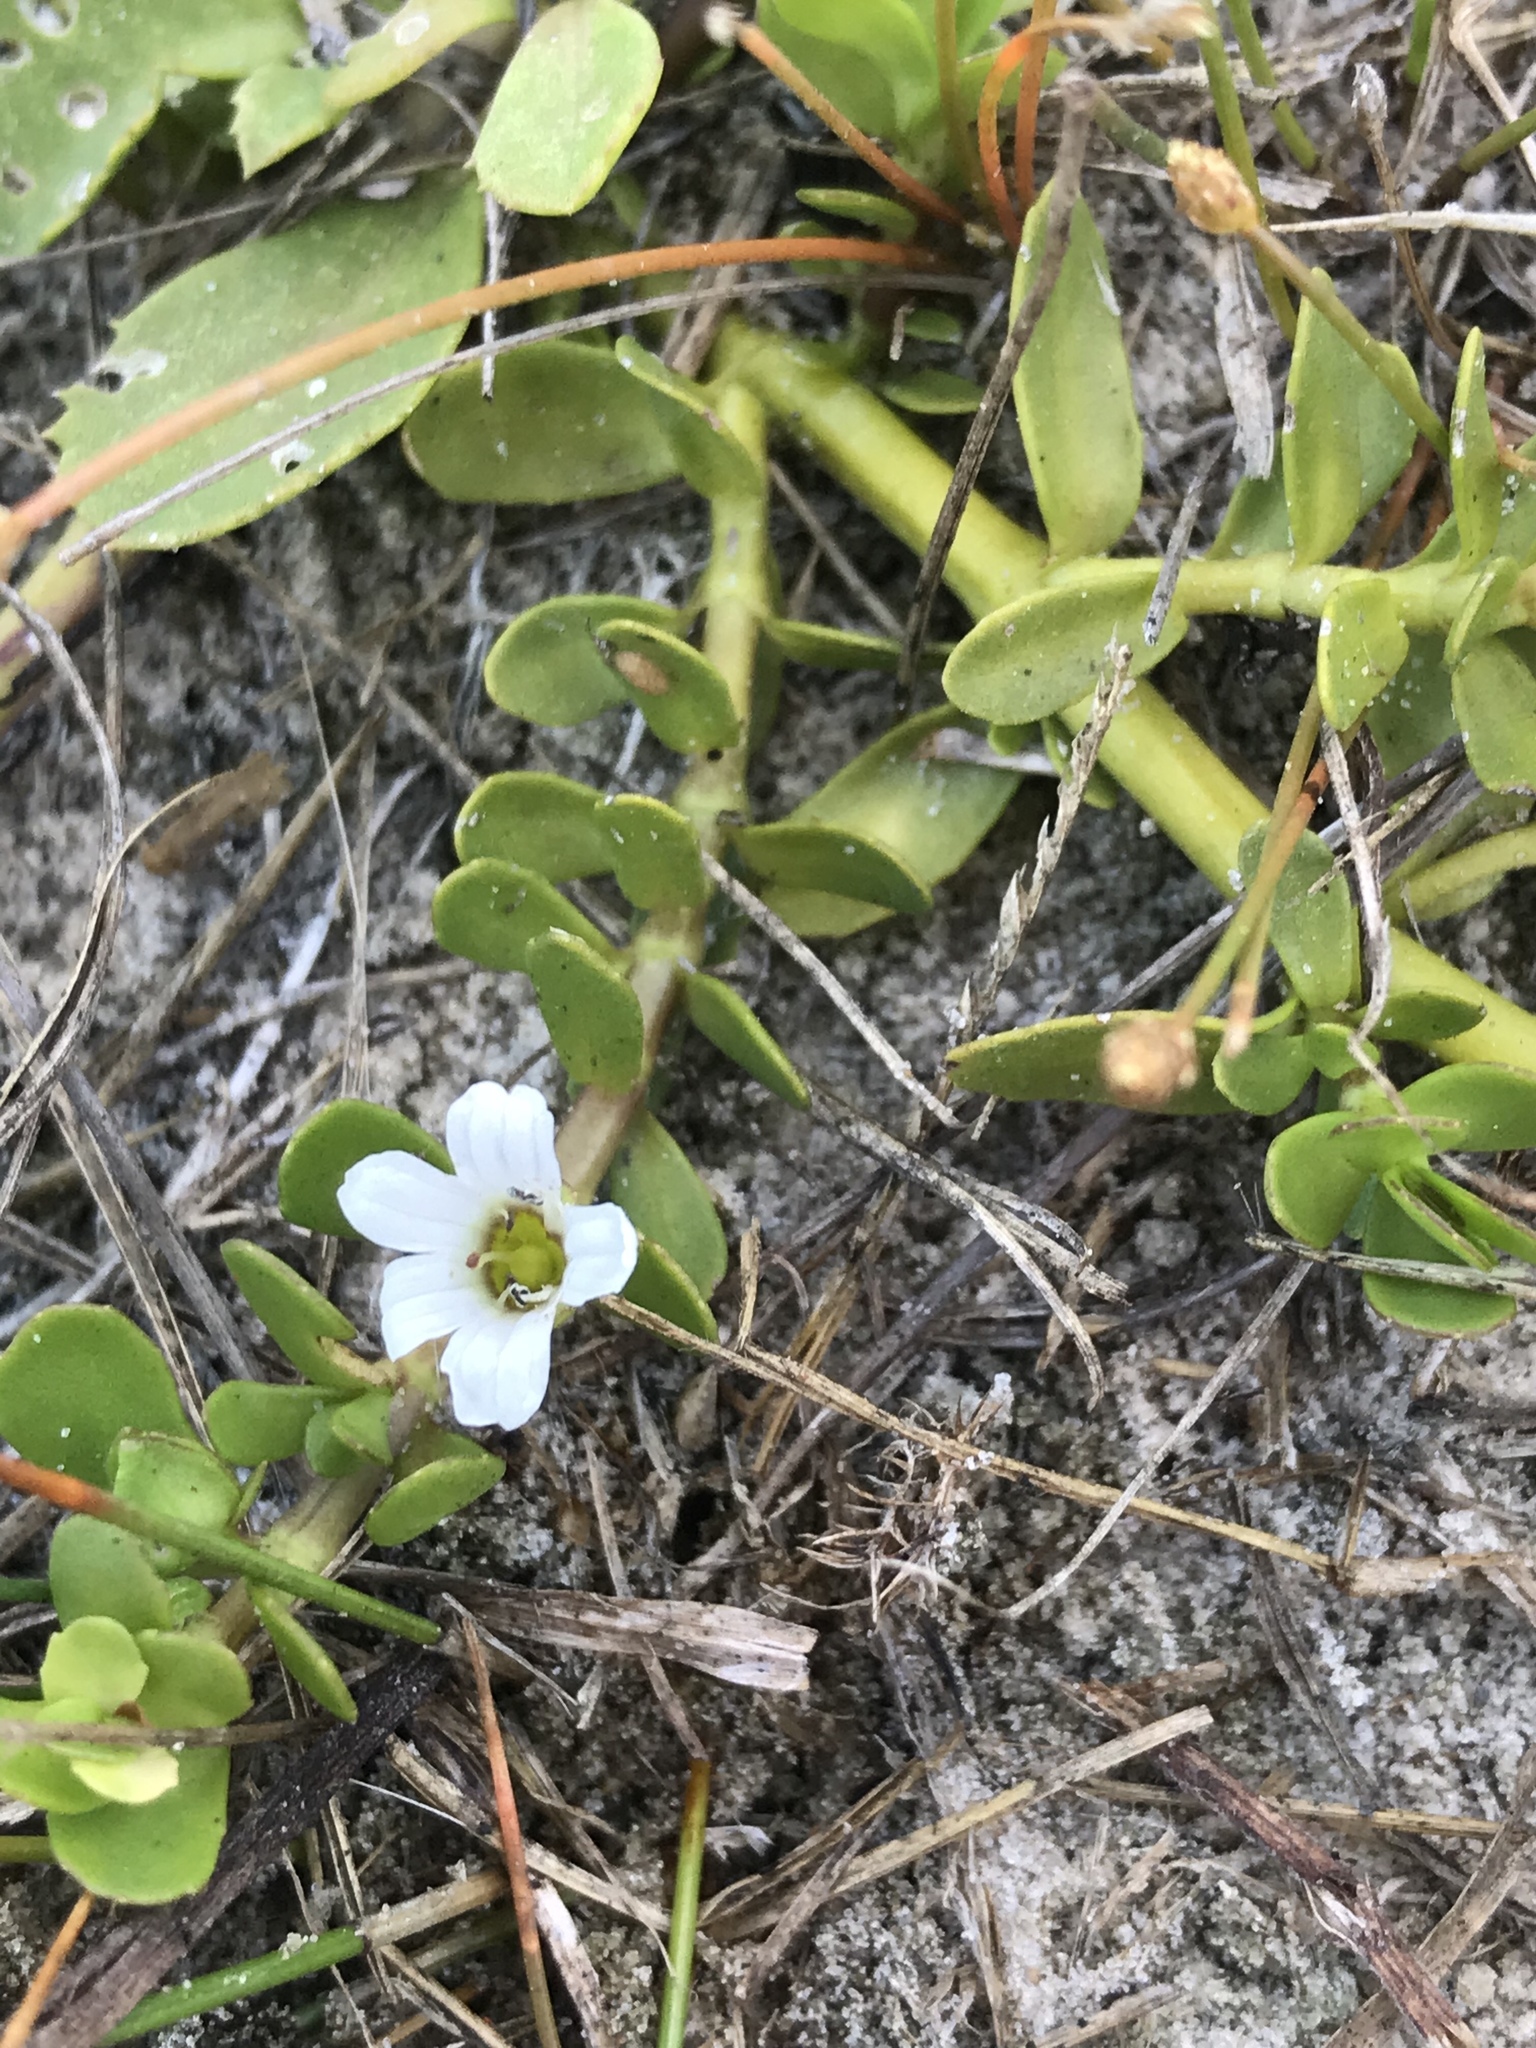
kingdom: Plantae
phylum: Tracheophyta
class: Magnoliopsida
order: Lamiales
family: Plantaginaceae
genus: Bacopa
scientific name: Bacopa monnieri
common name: Indian-pennywort
